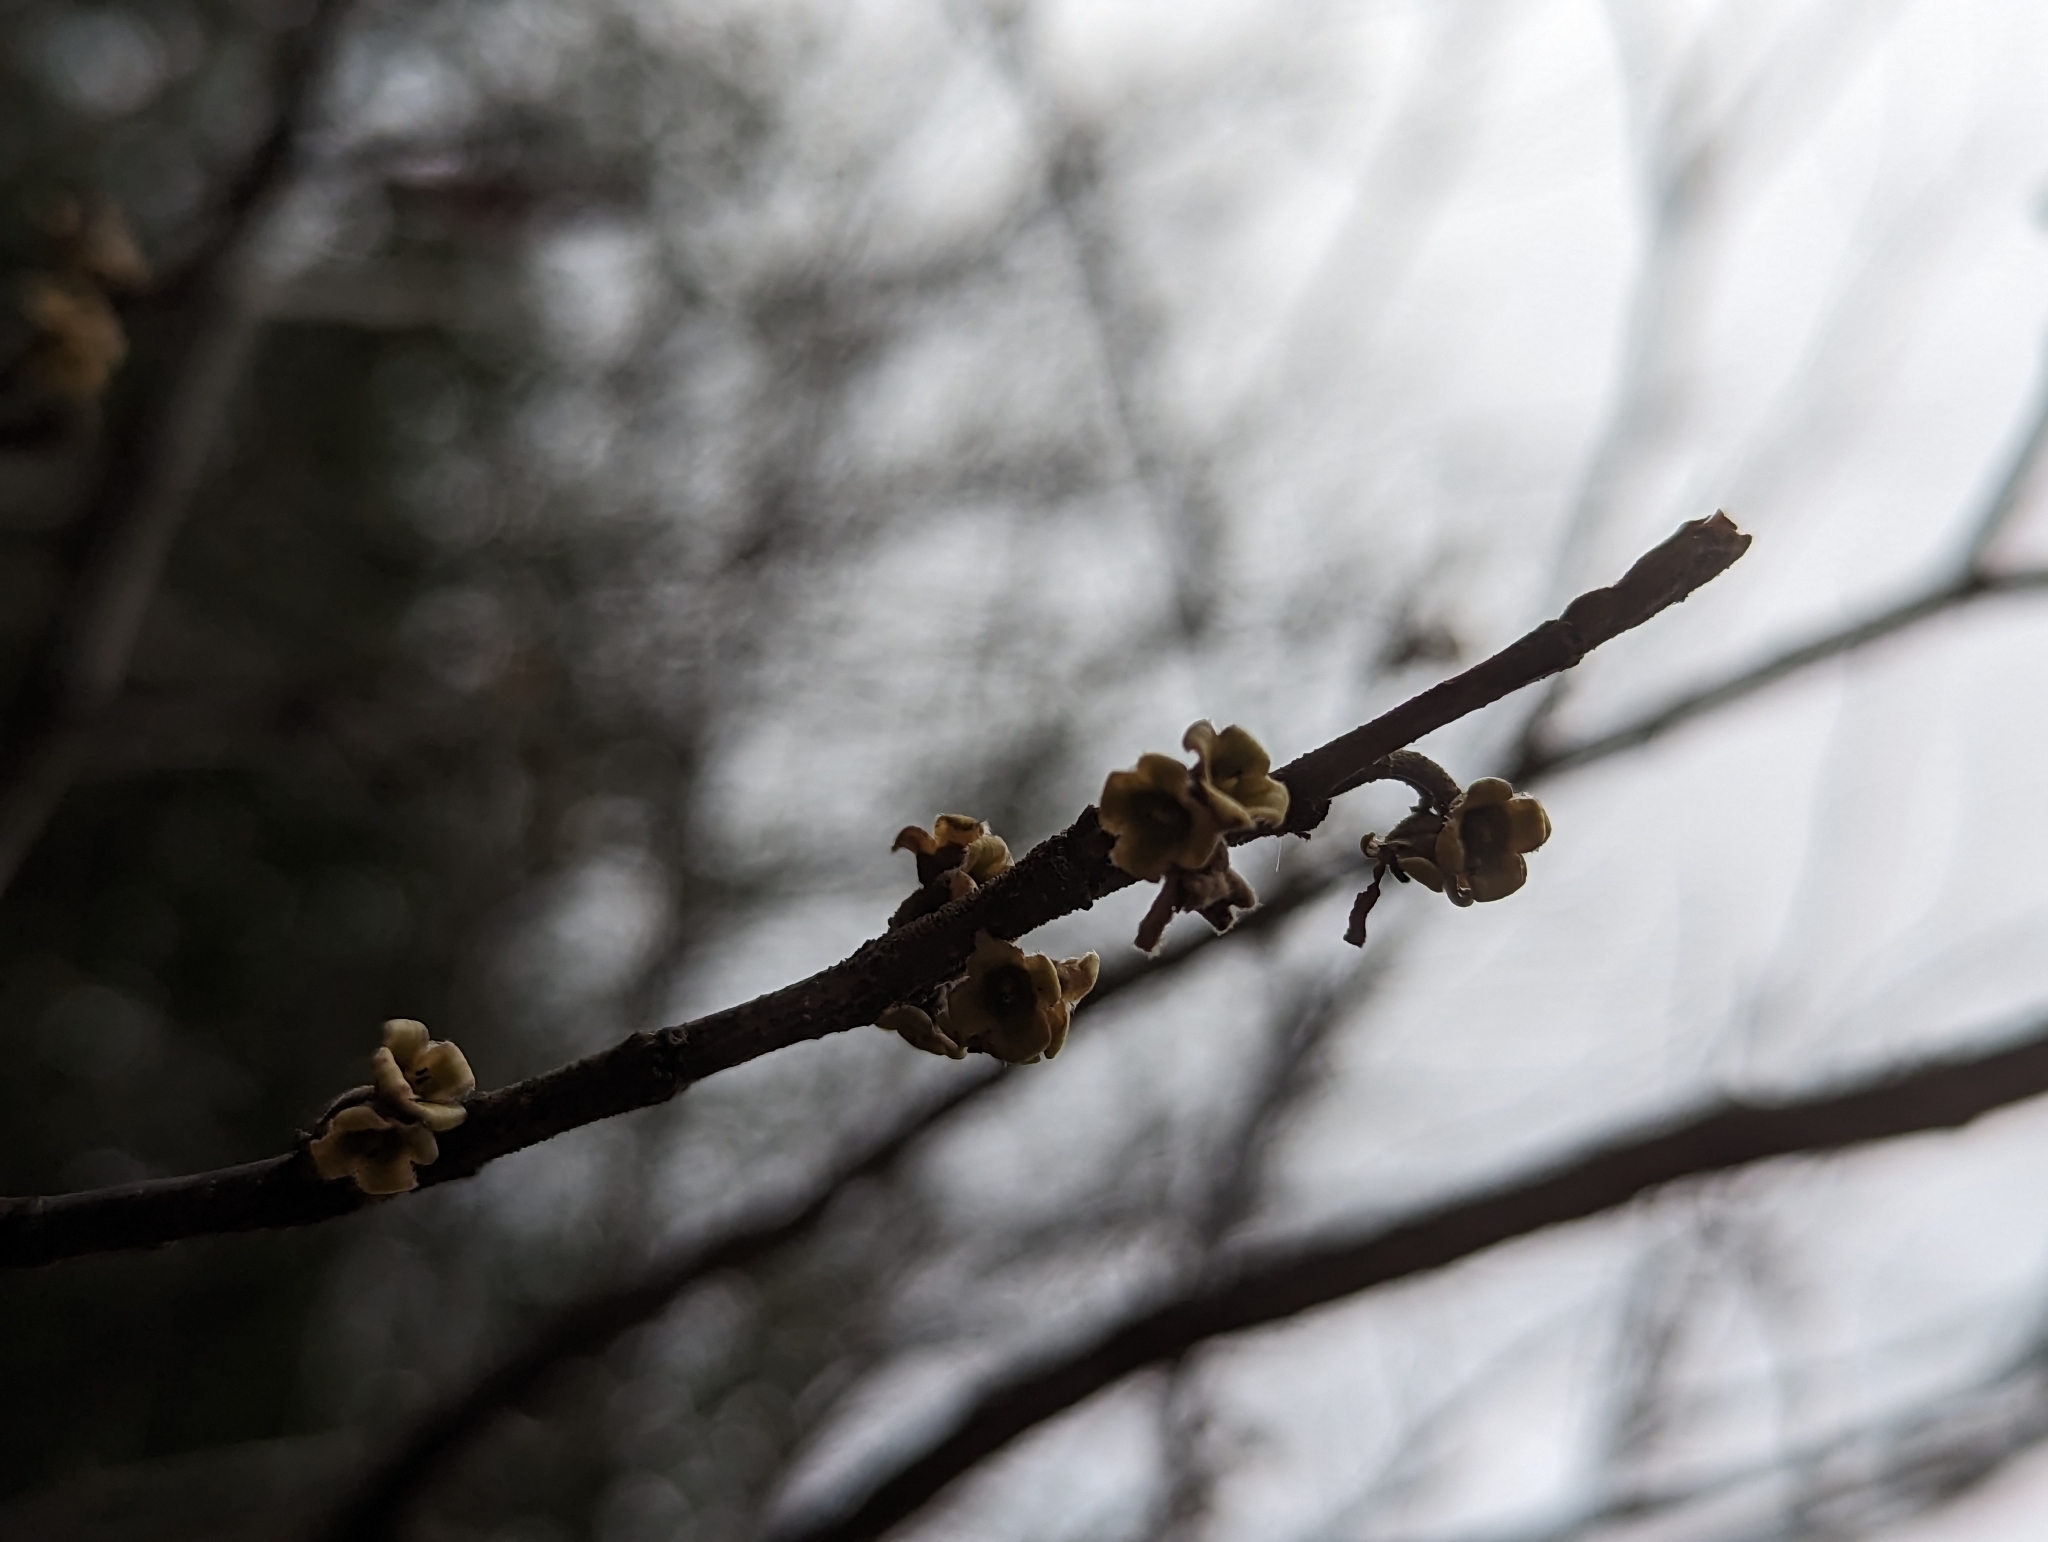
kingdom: Plantae
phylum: Tracheophyta
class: Magnoliopsida
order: Saxifragales
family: Hamamelidaceae
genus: Hamamelis
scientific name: Hamamelis virginiana
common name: Witch-hazel
